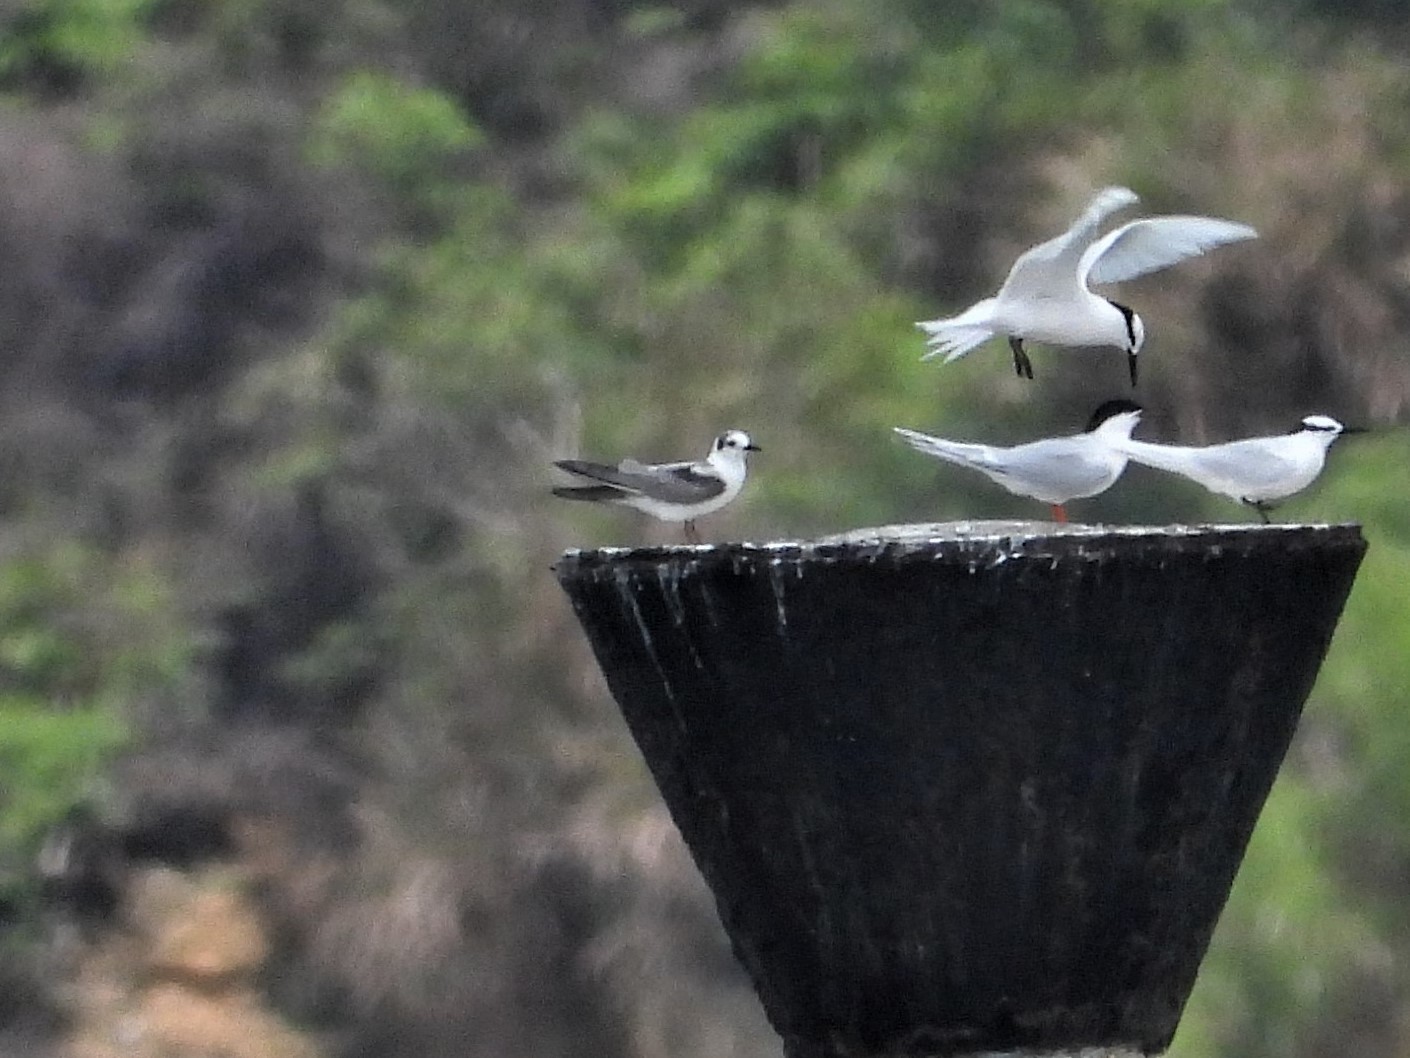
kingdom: Animalia
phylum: Chordata
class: Aves
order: Charadriiformes
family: Laridae
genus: Chlidonias
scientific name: Chlidonias leucopterus
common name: White-winged tern
